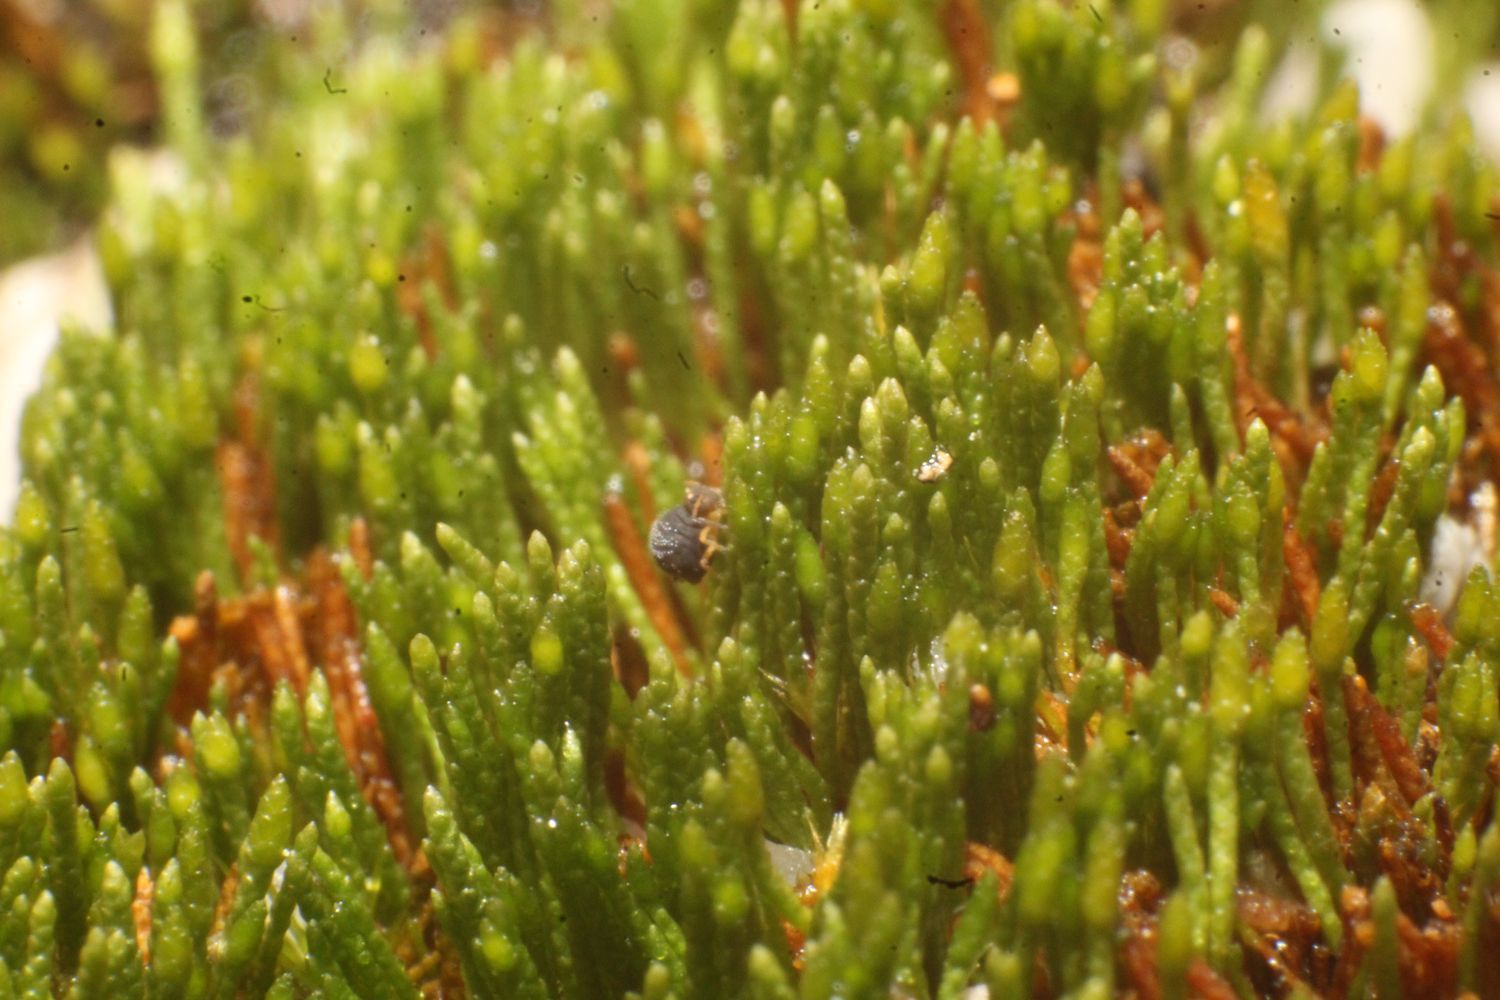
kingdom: Plantae
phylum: Bryophyta
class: Bryopsida
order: Dicranales
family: Dicranellaceae
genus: Eccremidium
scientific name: Eccremidium pulchellum
